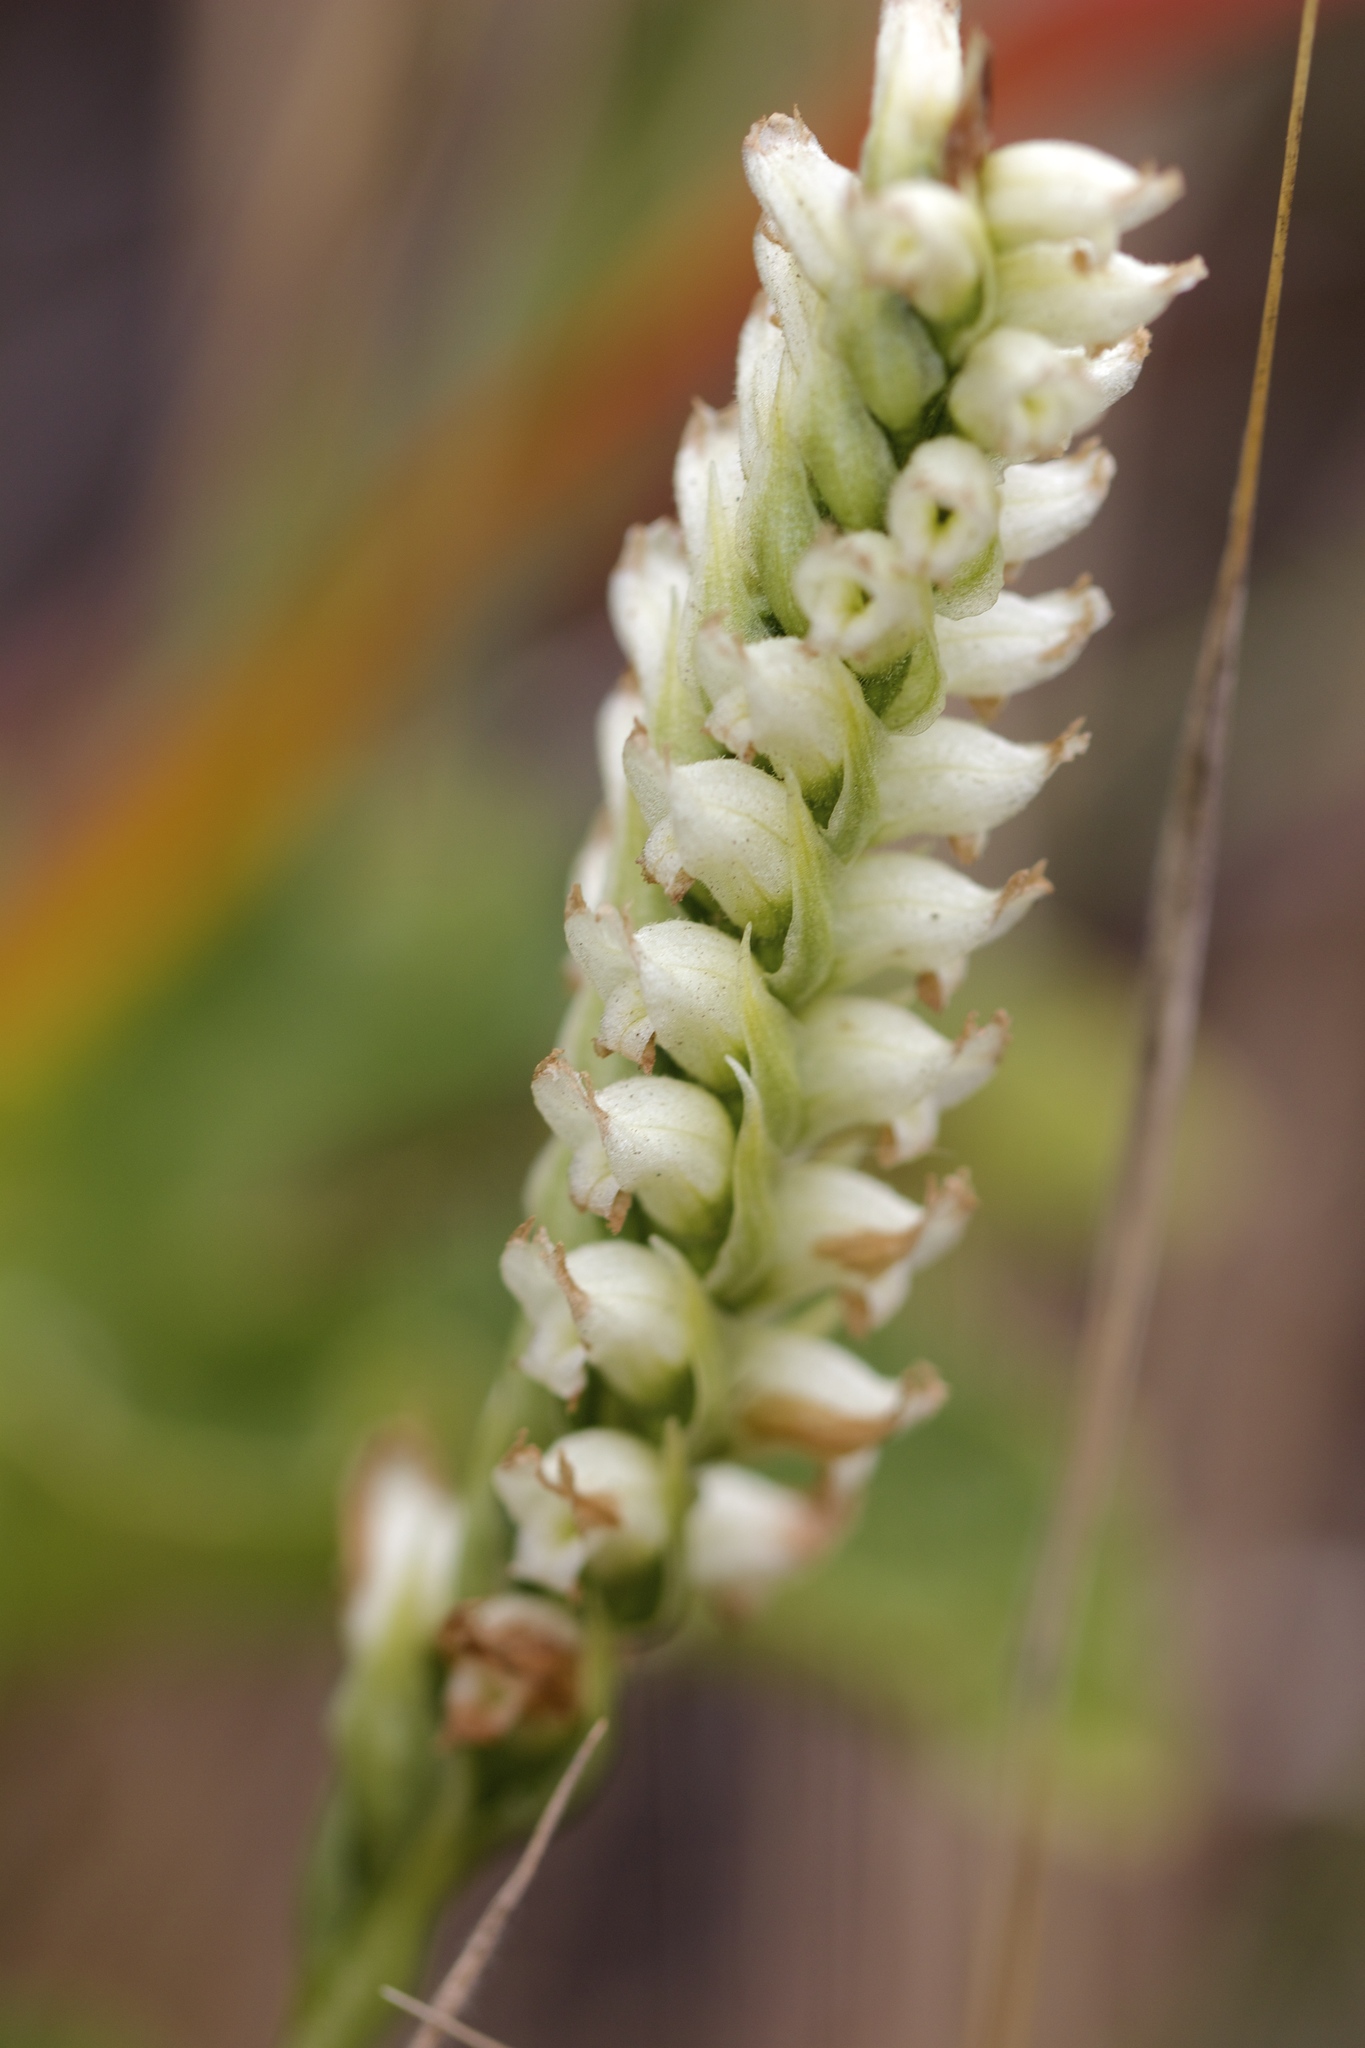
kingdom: Plantae
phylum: Tracheophyta
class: Liliopsida
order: Asparagales
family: Orchidaceae
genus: Spiranthes
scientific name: Spiranthes romanzoffiana
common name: Irish lady's-tresses
